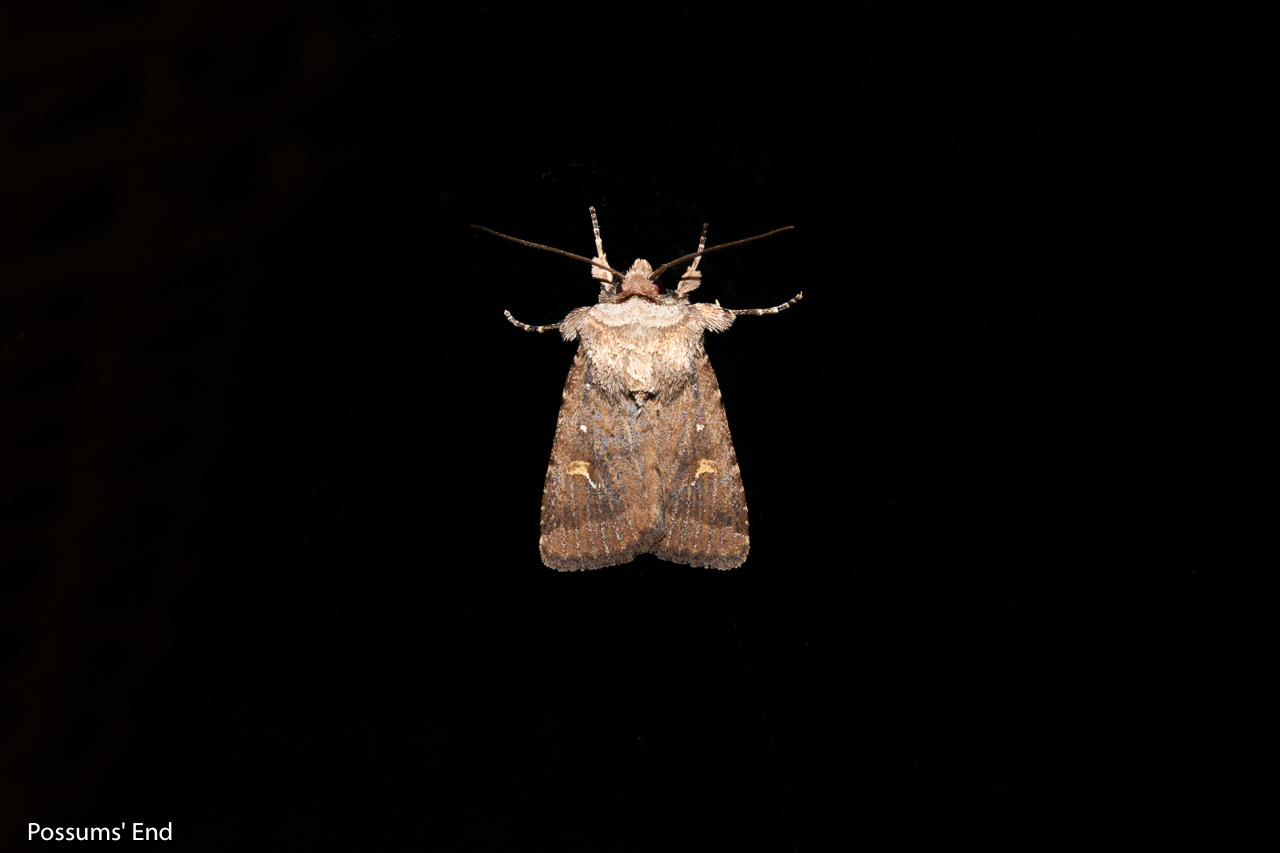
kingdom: Animalia
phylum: Arthropoda
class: Insecta
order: Lepidoptera
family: Noctuidae
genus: Proteuxoa
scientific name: Proteuxoa tetronycha
